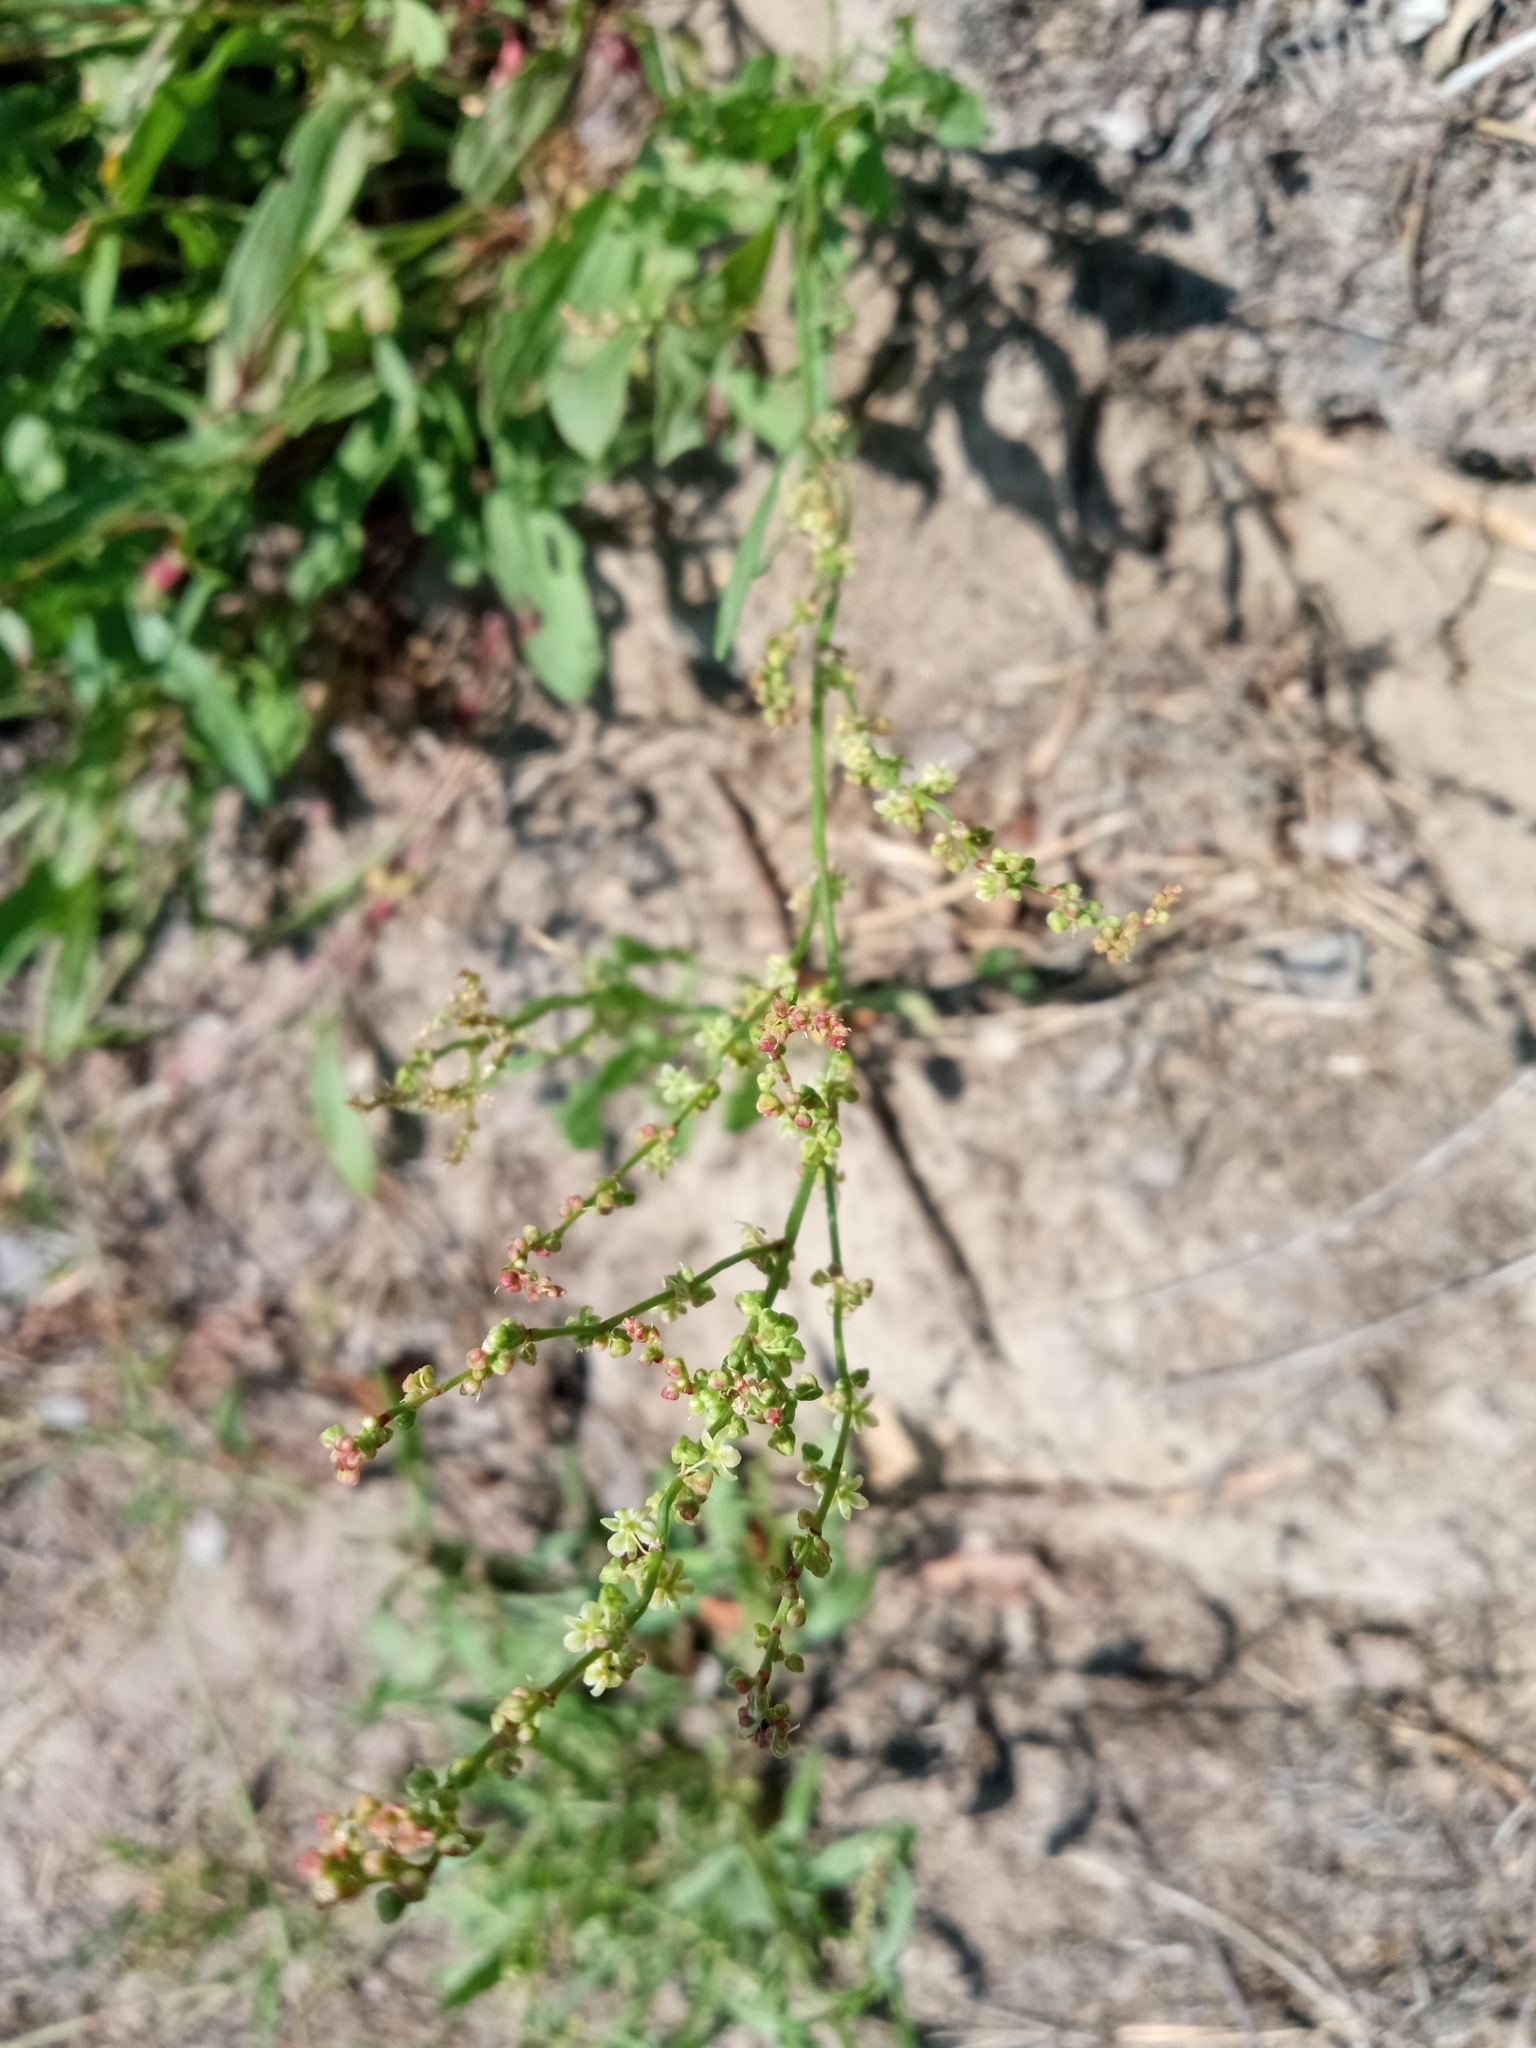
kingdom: Plantae
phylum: Tracheophyta
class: Magnoliopsida
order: Caryophyllales
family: Polygonaceae
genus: Rumex
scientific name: Rumex acetosella
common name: Common sheep sorrel
